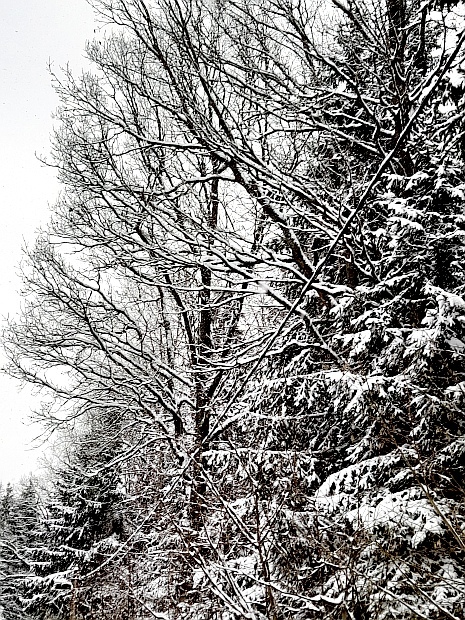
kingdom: Plantae
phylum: Tracheophyta
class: Magnoliopsida
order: Fagales
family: Fagaceae
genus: Quercus
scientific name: Quercus robur
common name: Pedunculate oak
